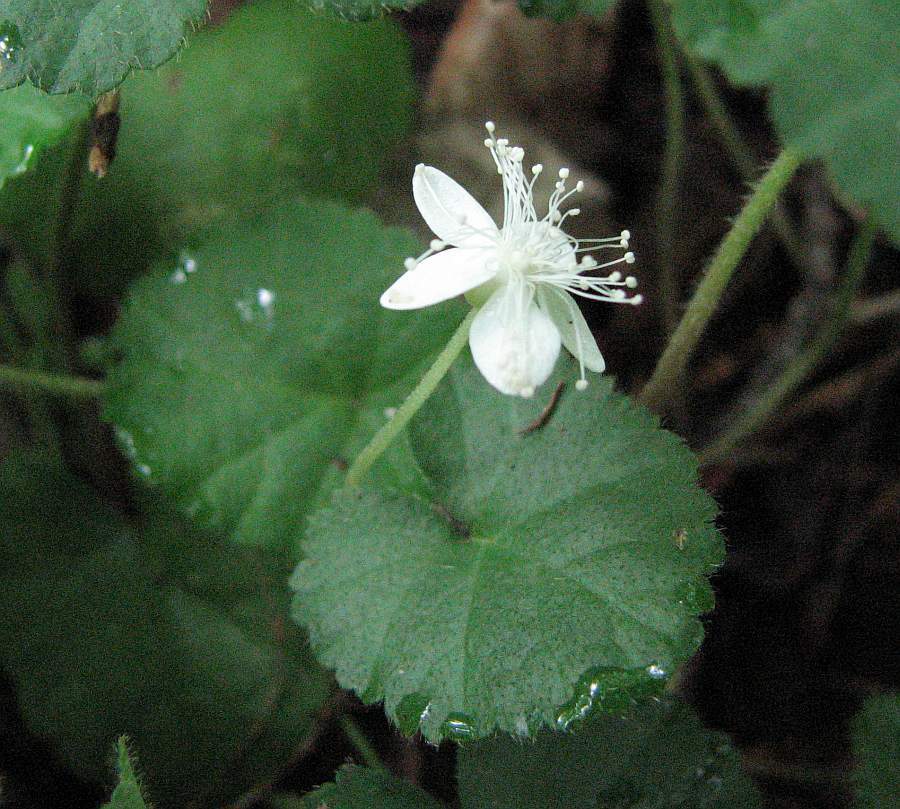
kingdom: Plantae
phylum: Tracheophyta
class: Magnoliopsida
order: Rosales
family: Rosaceae
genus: Dalibarda
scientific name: Dalibarda repens
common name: Dewdrop
